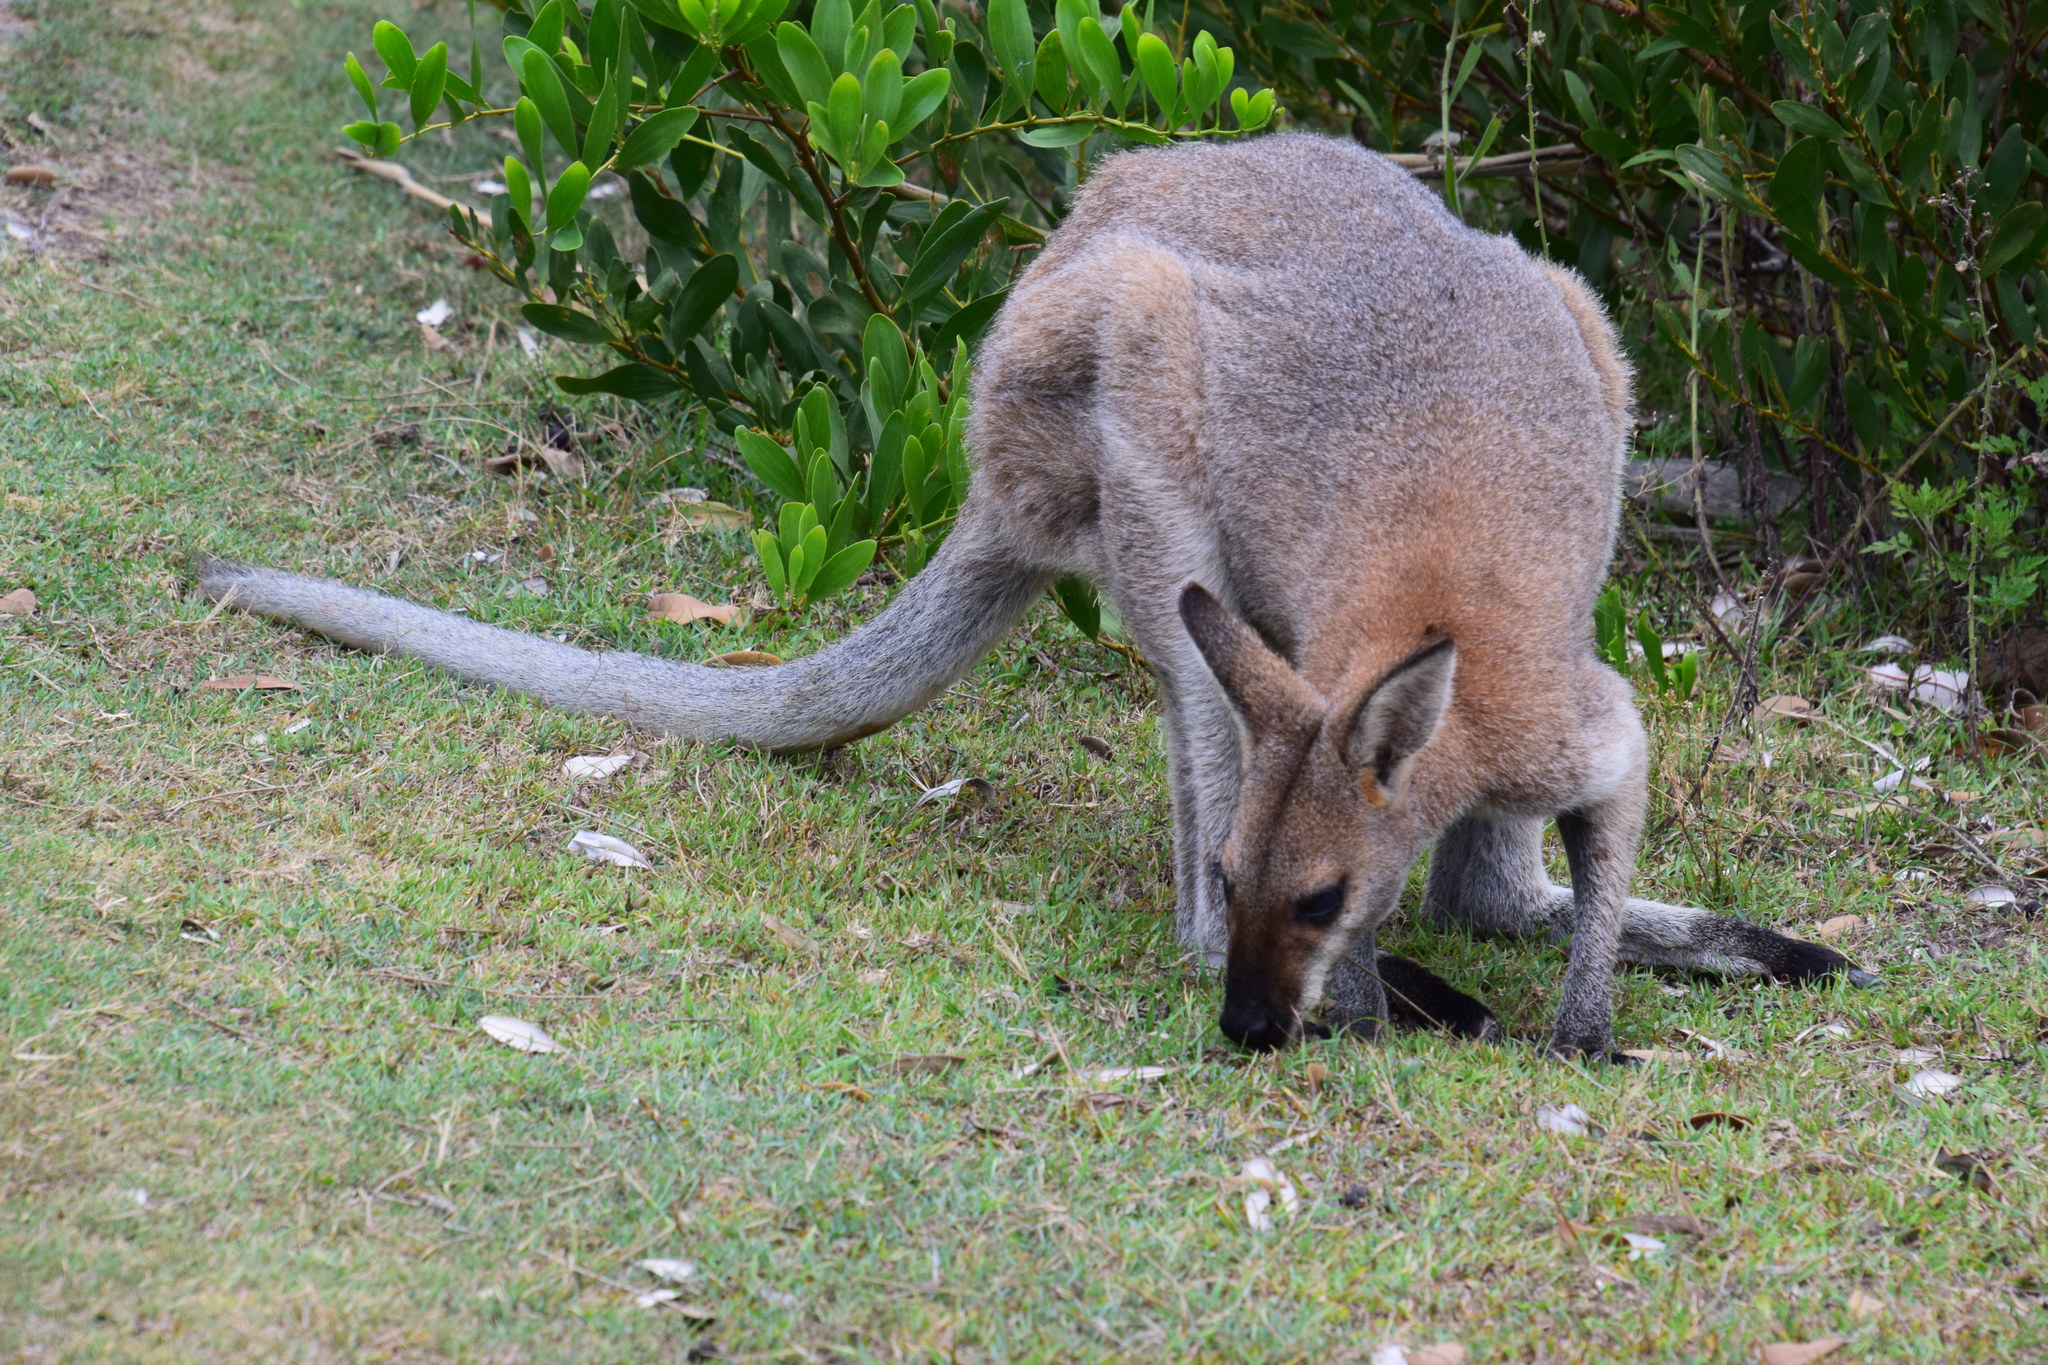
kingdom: Animalia
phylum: Chordata
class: Mammalia
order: Diprotodontia
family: Macropodidae
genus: Notamacropus
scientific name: Notamacropus rufogriseus
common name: Red-necked wallaby
